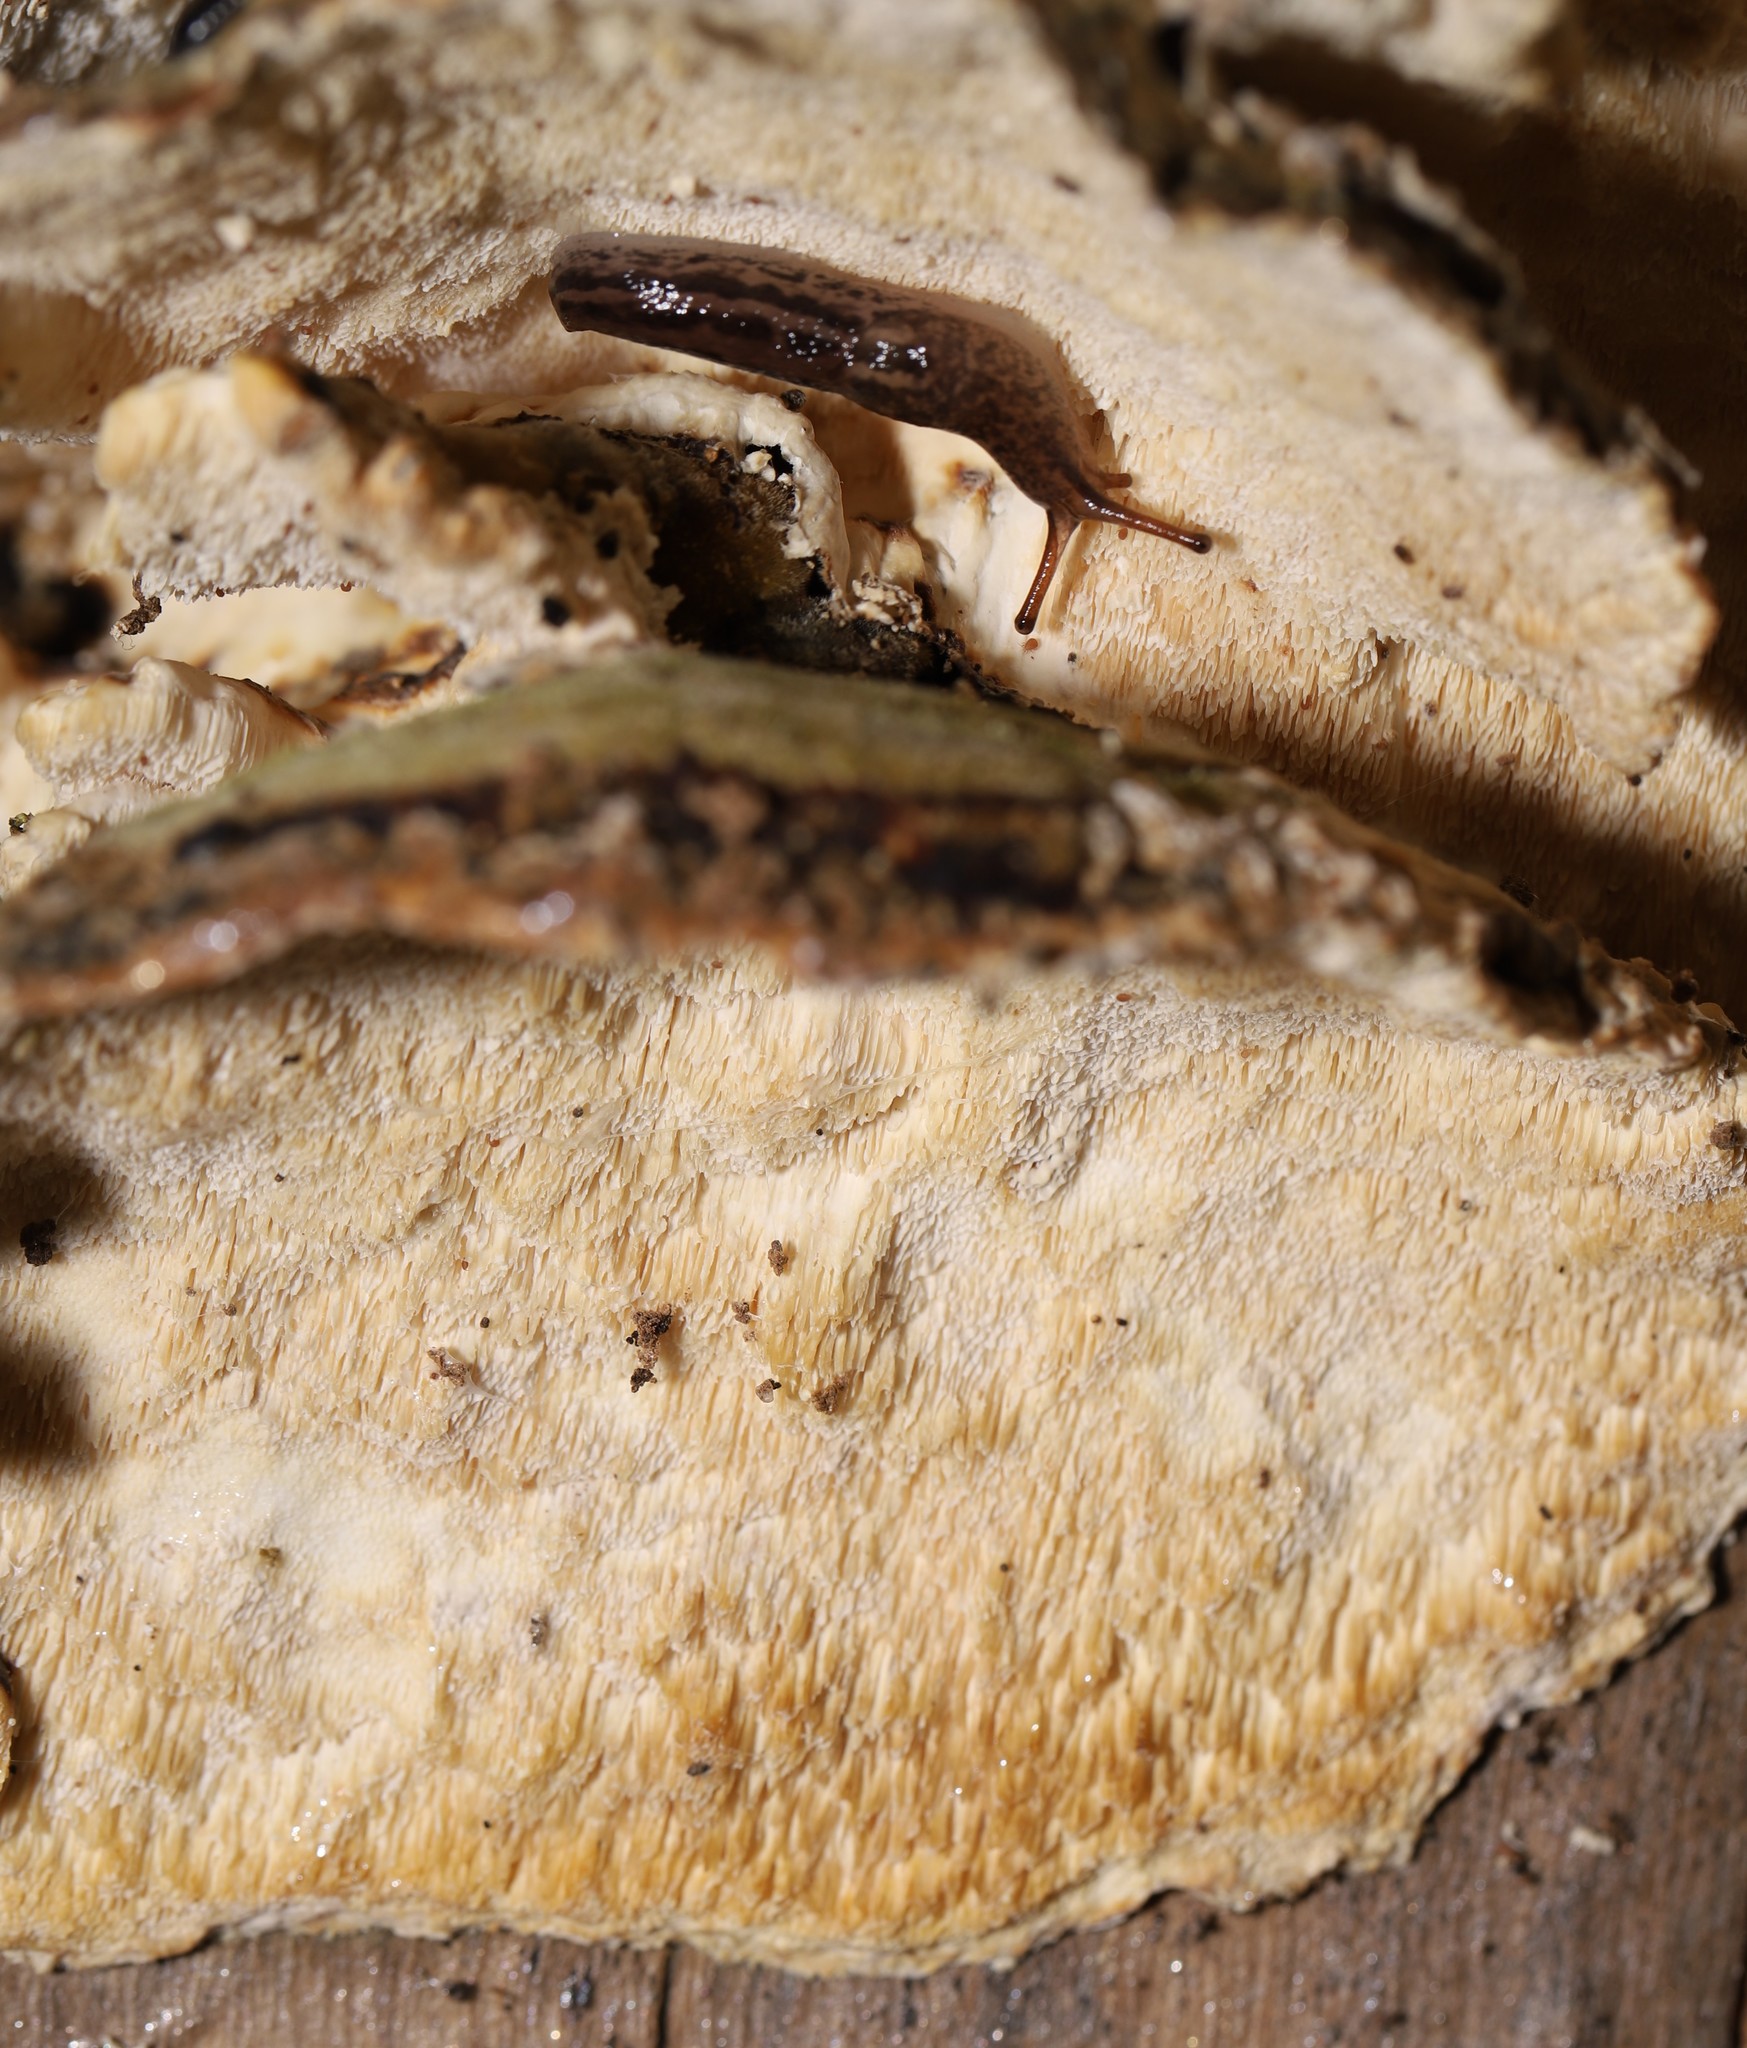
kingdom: Fungi
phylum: Basidiomycota
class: Agaricomycetes
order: Polyporales
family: Polyporaceae
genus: Trametes
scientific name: Trametes versicolor
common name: Turkeytail
